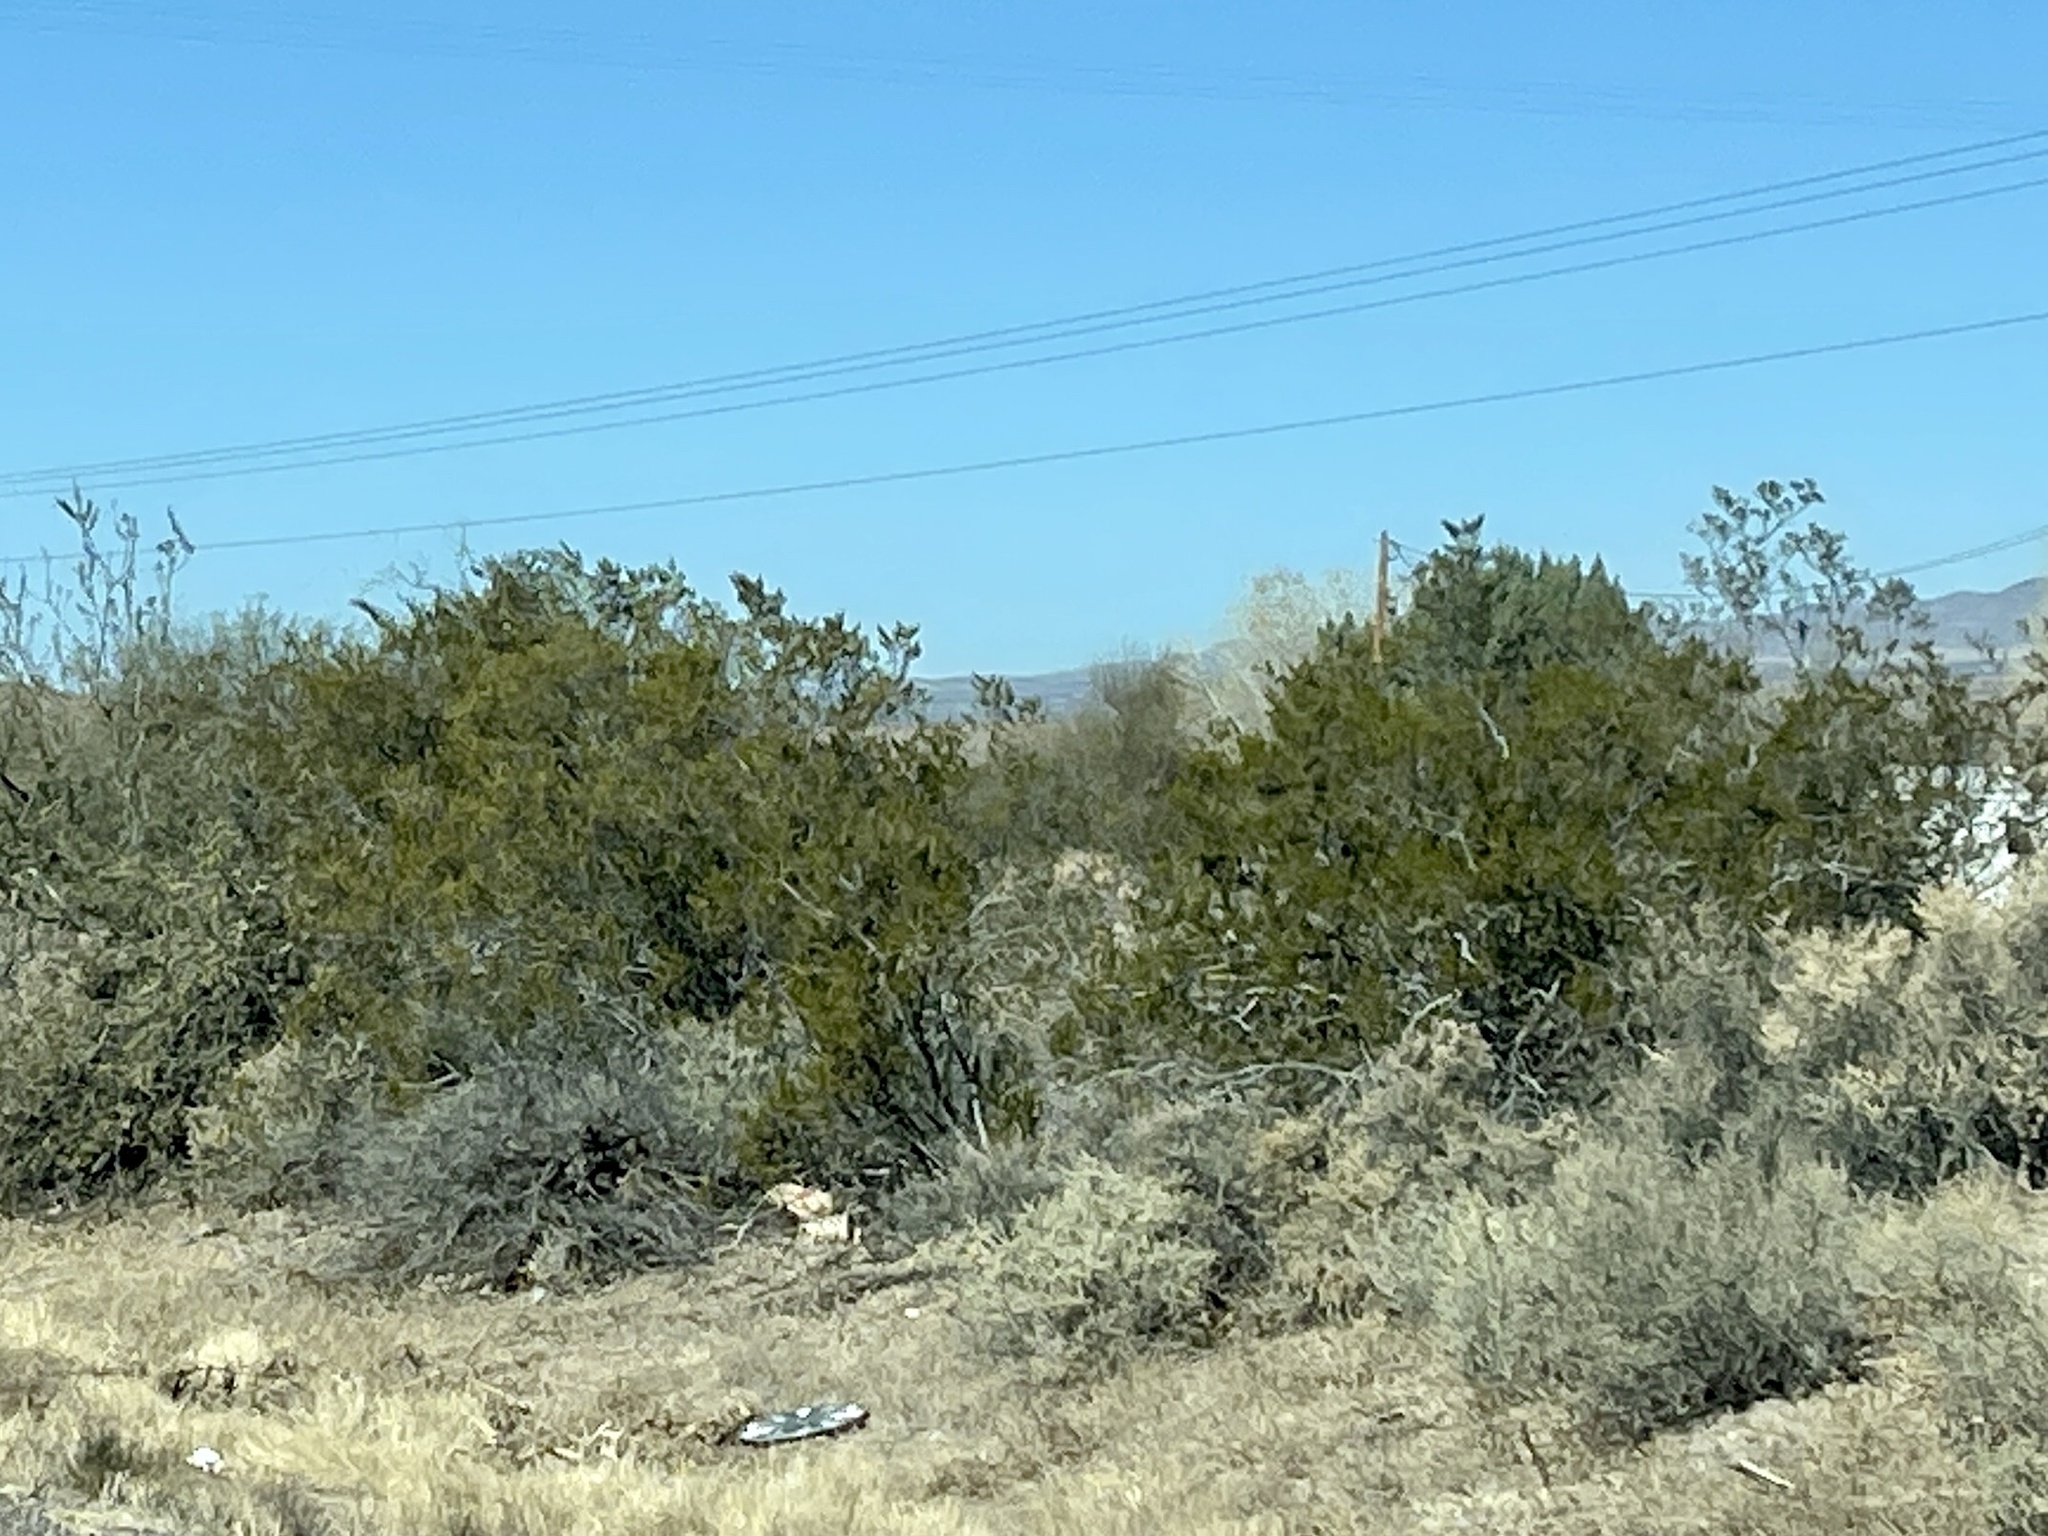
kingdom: Plantae
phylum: Tracheophyta
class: Magnoliopsida
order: Zygophyllales
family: Zygophyllaceae
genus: Larrea
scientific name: Larrea tridentata
